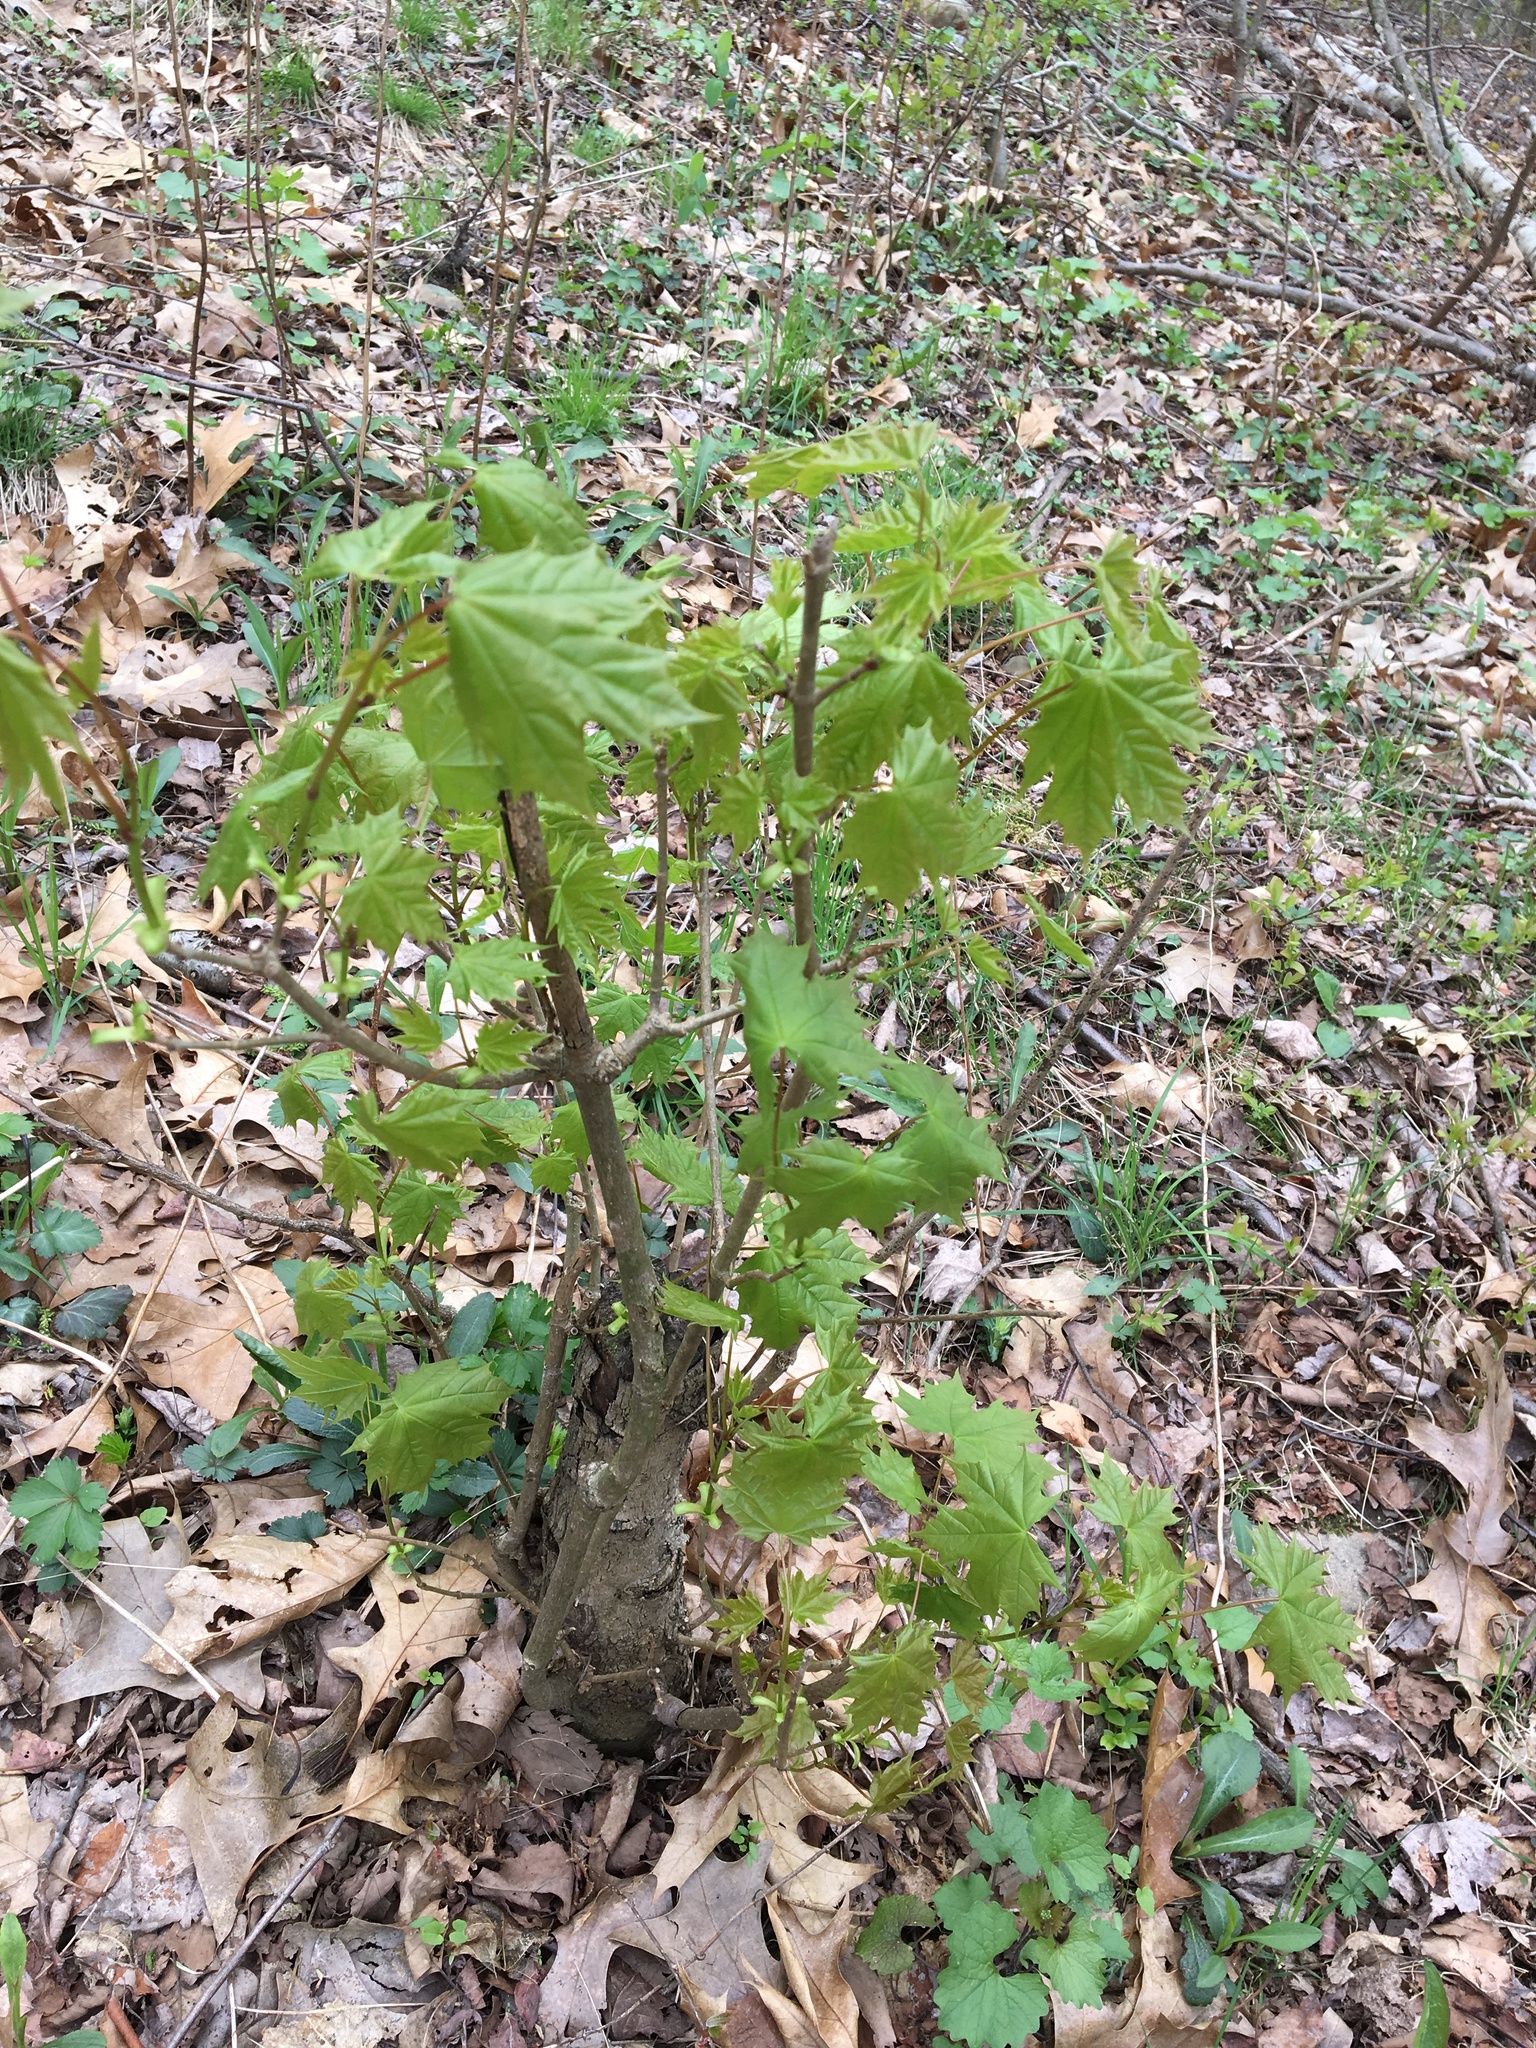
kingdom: Plantae
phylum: Tracheophyta
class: Magnoliopsida
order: Sapindales
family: Sapindaceae
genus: Acer
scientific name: Acer platanoides
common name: Norway maple
